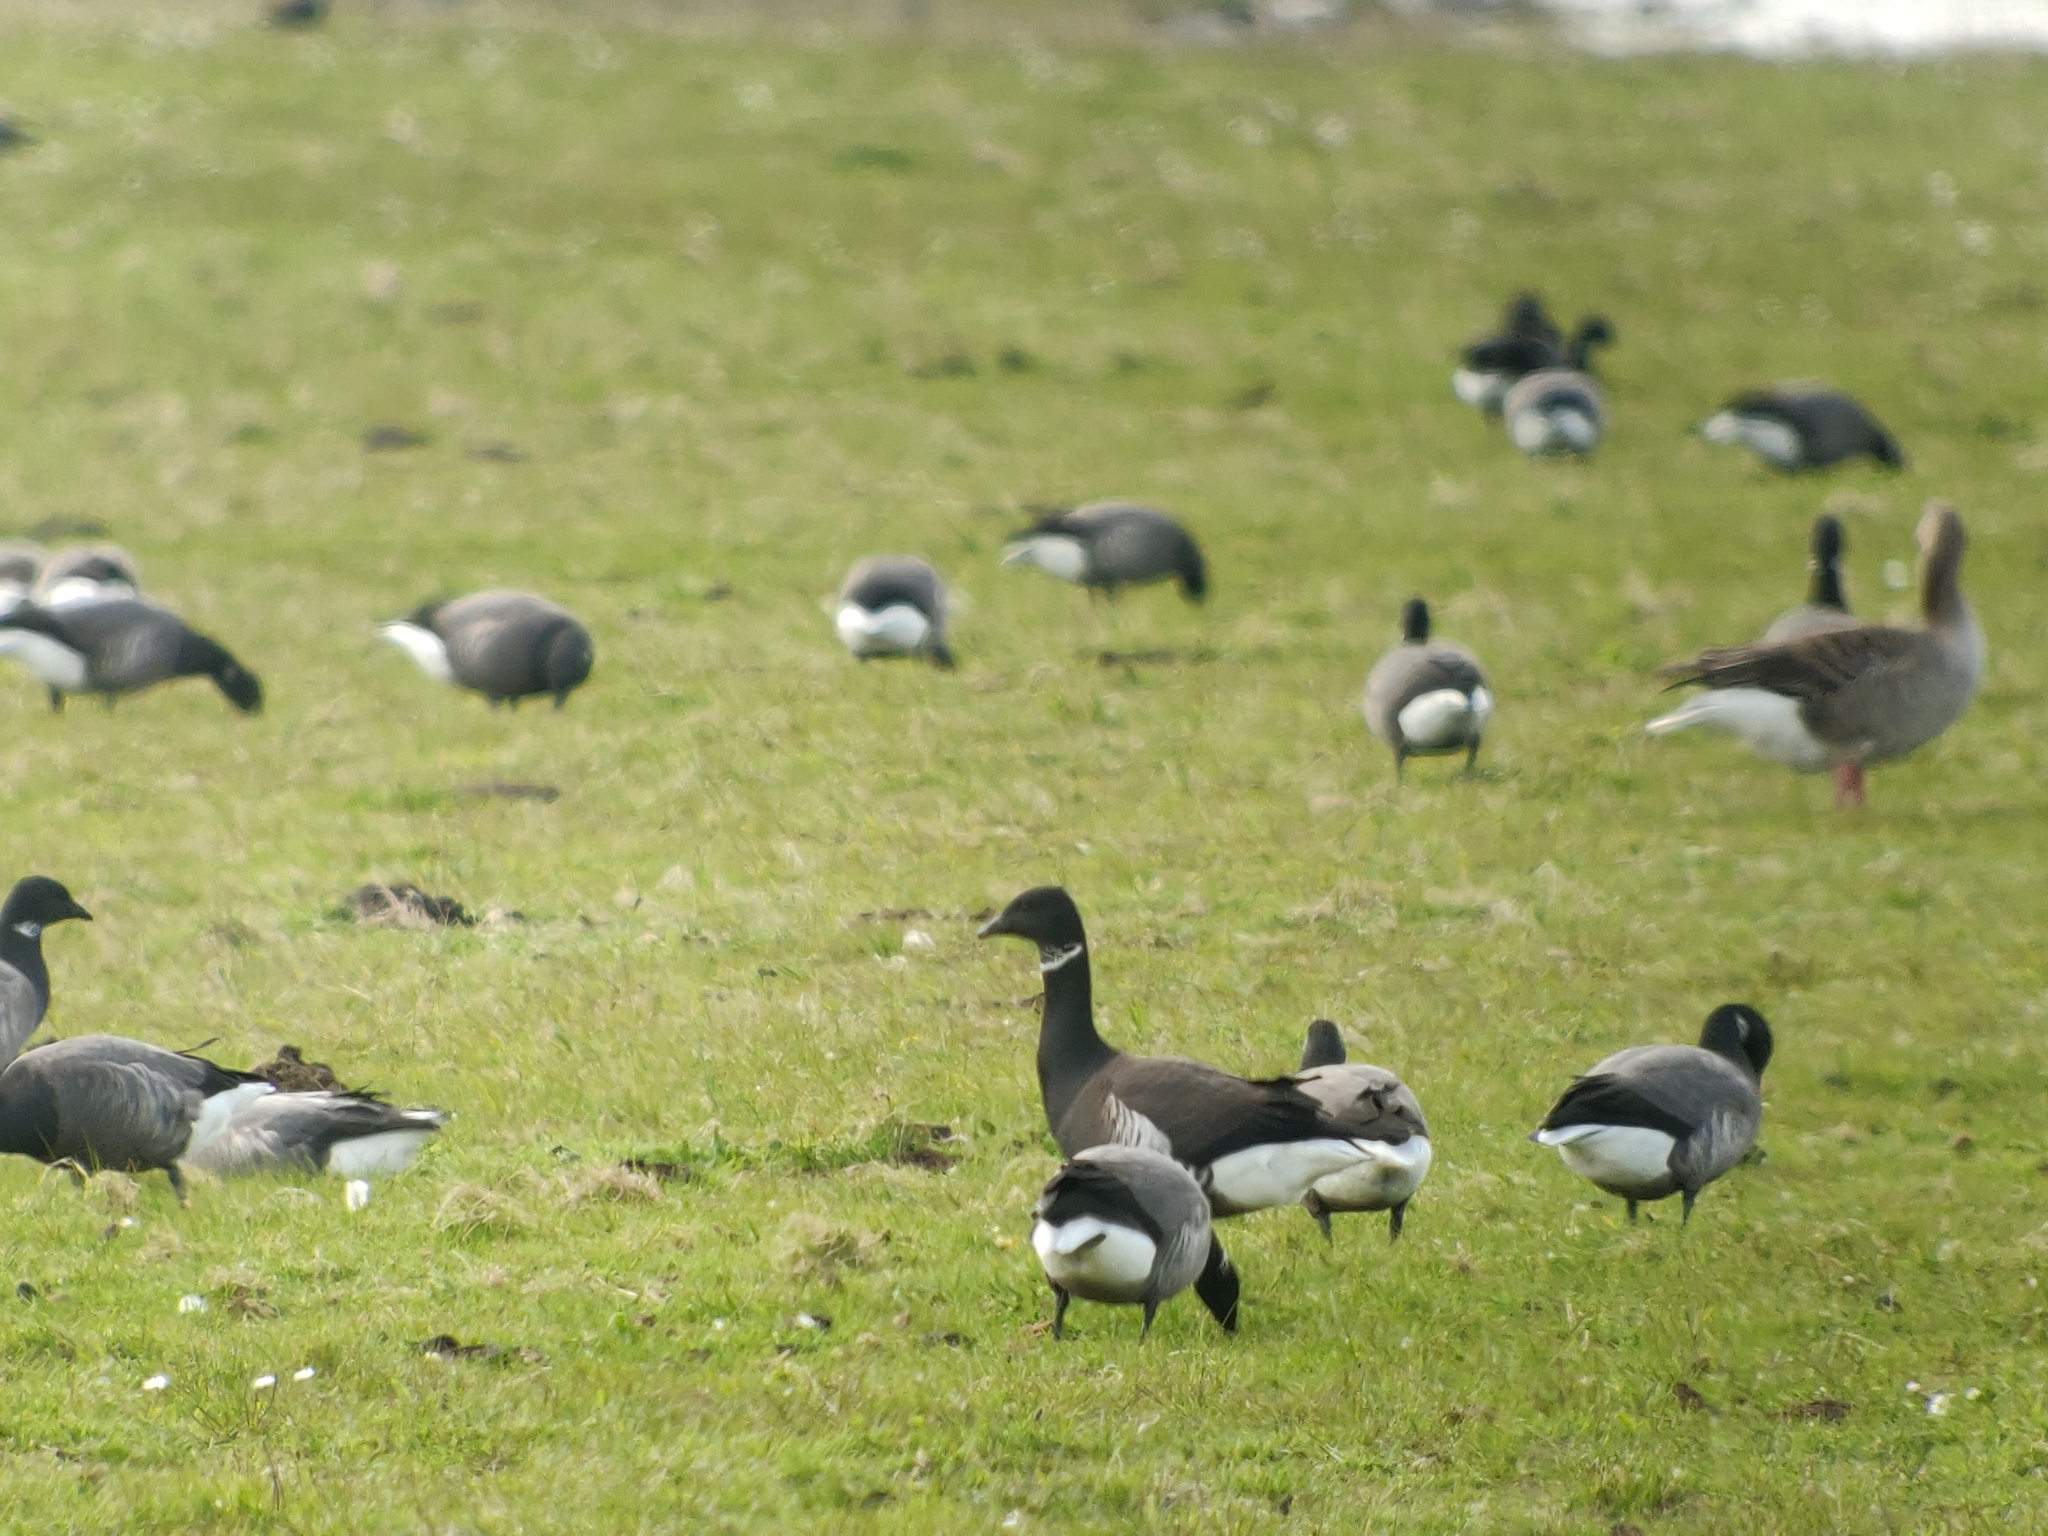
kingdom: Animalia
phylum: Chordata
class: Aves
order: Anseriformes
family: Anatidae
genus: Branta
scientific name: Branta bernicla
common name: Brant goose
